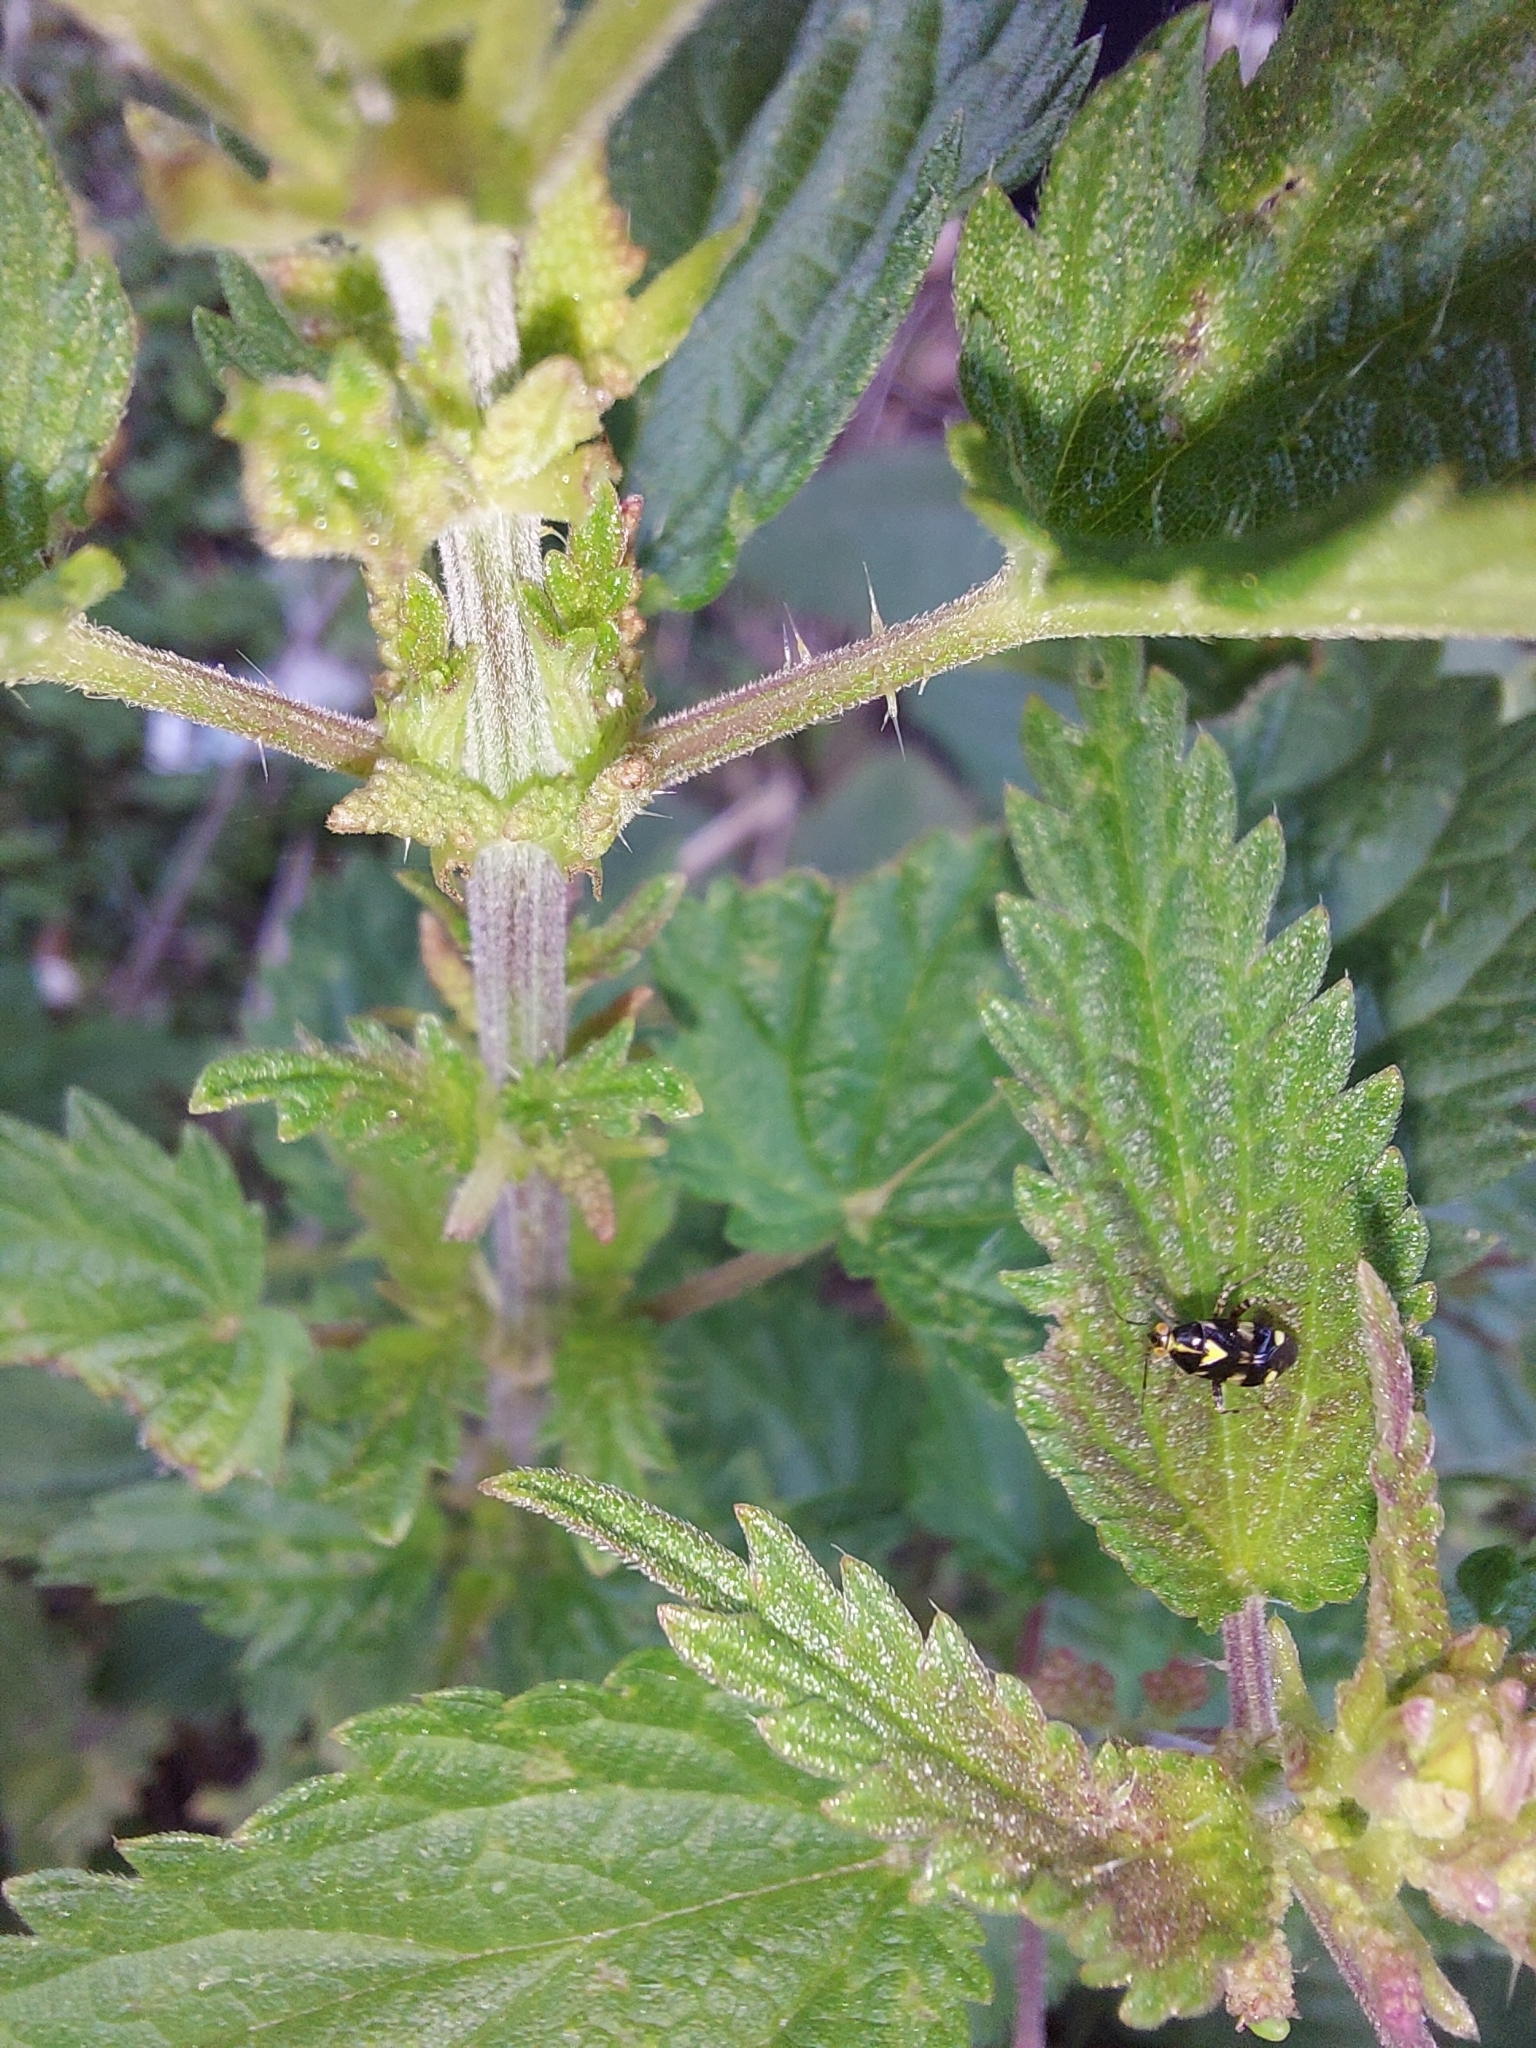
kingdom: Animalia
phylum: Arthropoda
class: Insecta
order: Hemiptera
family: Miridae
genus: Liocoris
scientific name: Liocoris tripustulatus
